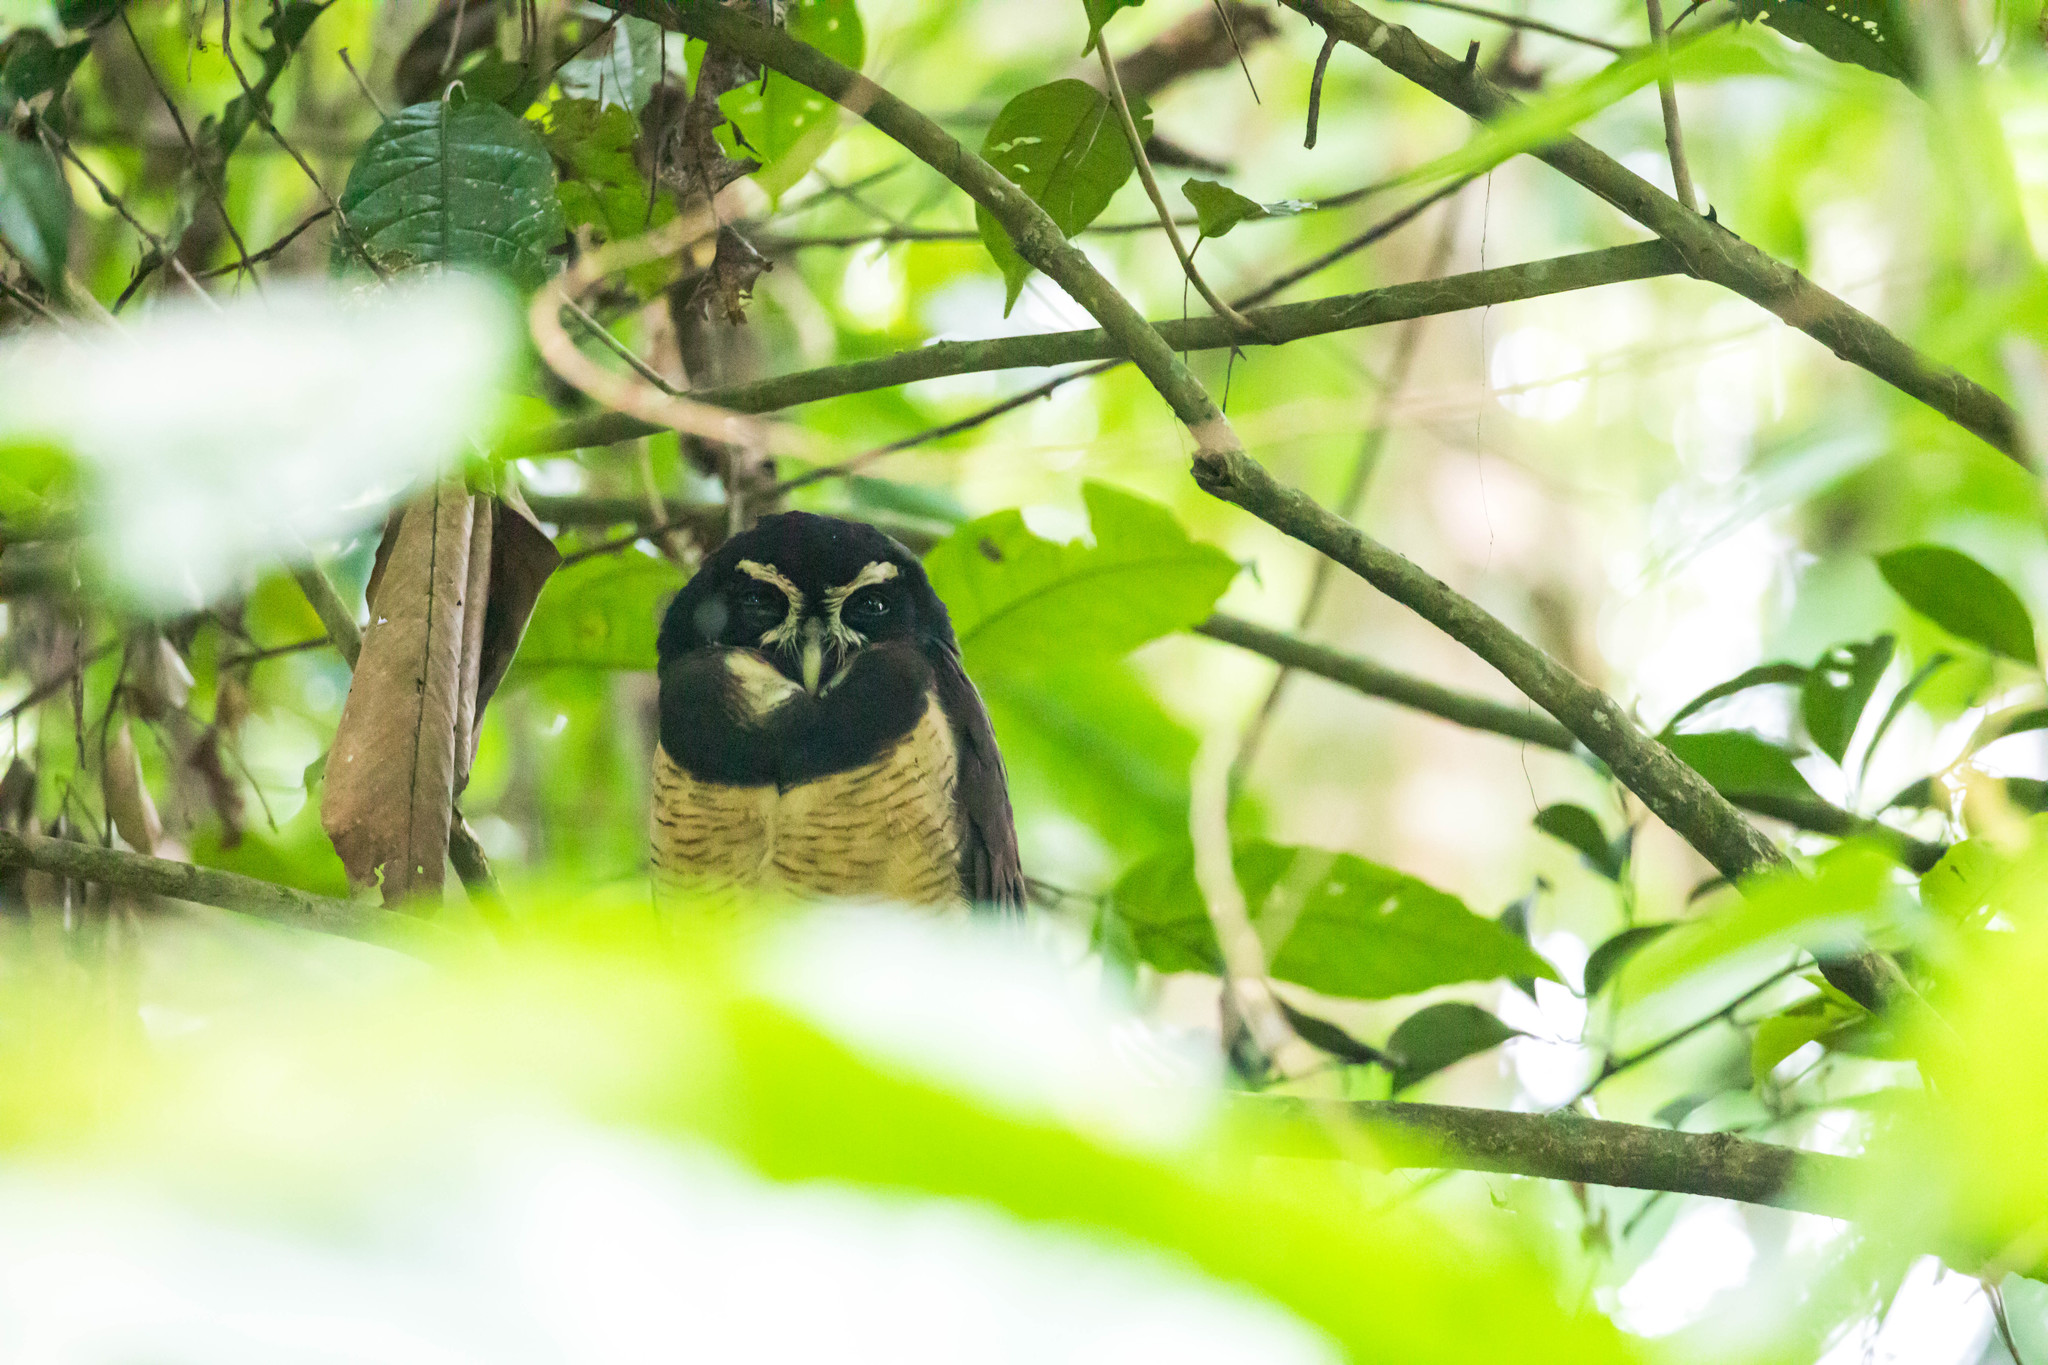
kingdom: Animalia
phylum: Chordata
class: Aves
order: Strigiformes
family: Strigidae
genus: Pulsatrix
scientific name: Pulsatrix perspicillata
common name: Spectacled owl
